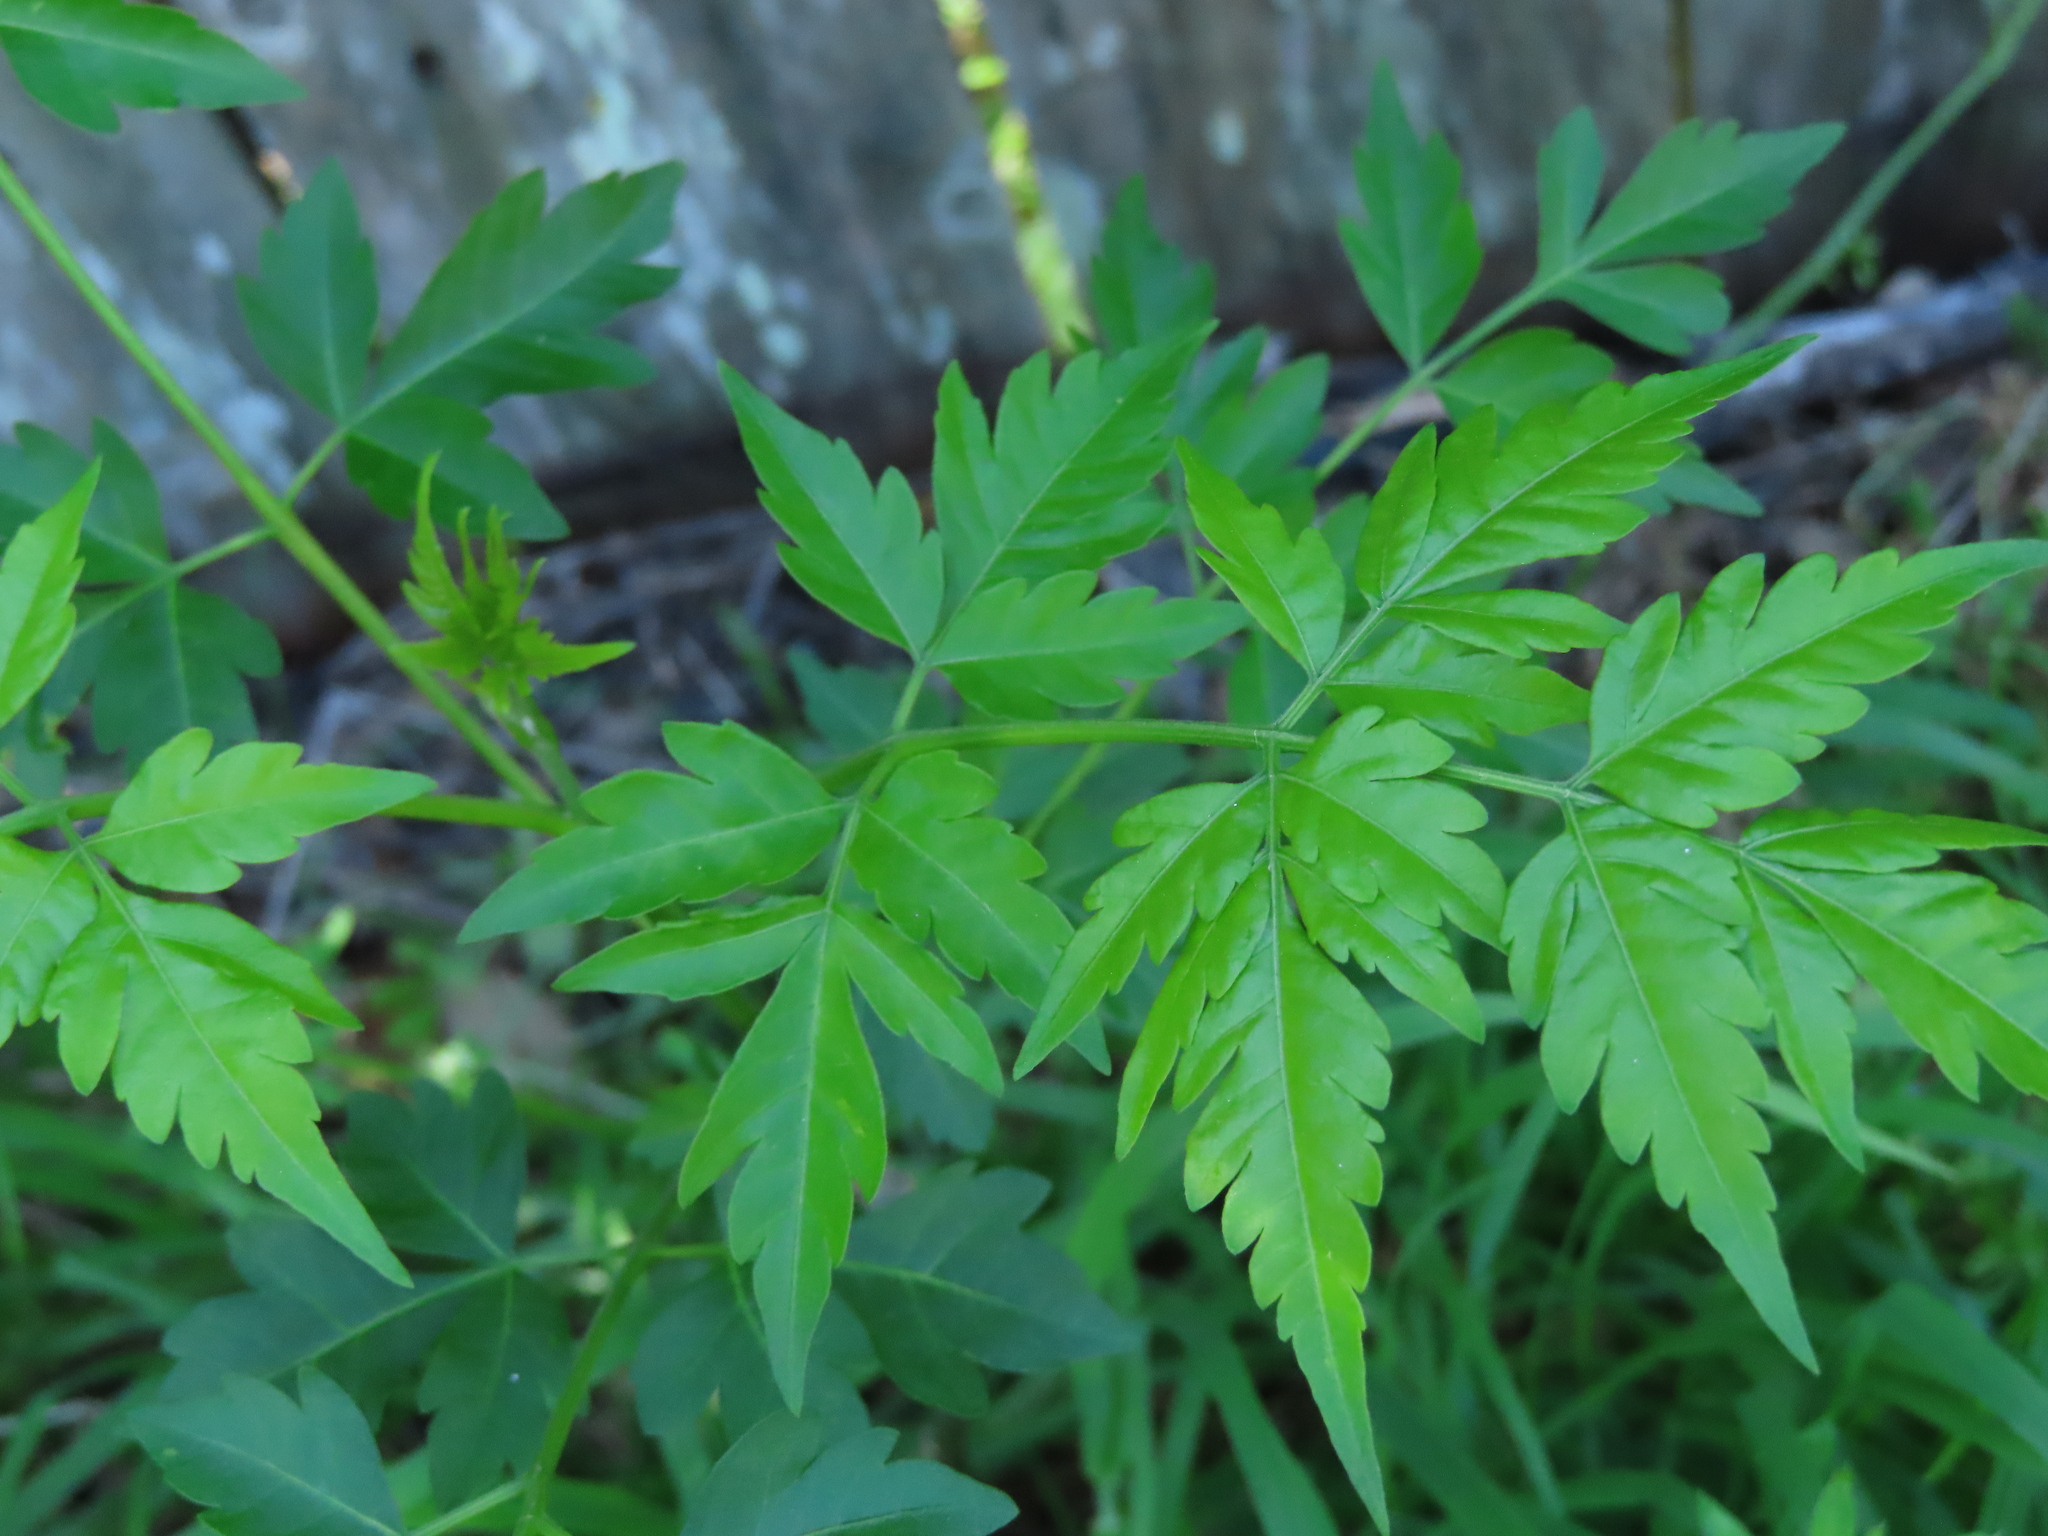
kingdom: Plantae
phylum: Tracheophyta
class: Magnoliopsida
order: Sapindales
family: Meliaceae
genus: Melia
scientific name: Melia azedarach
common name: Chinaberrytree
